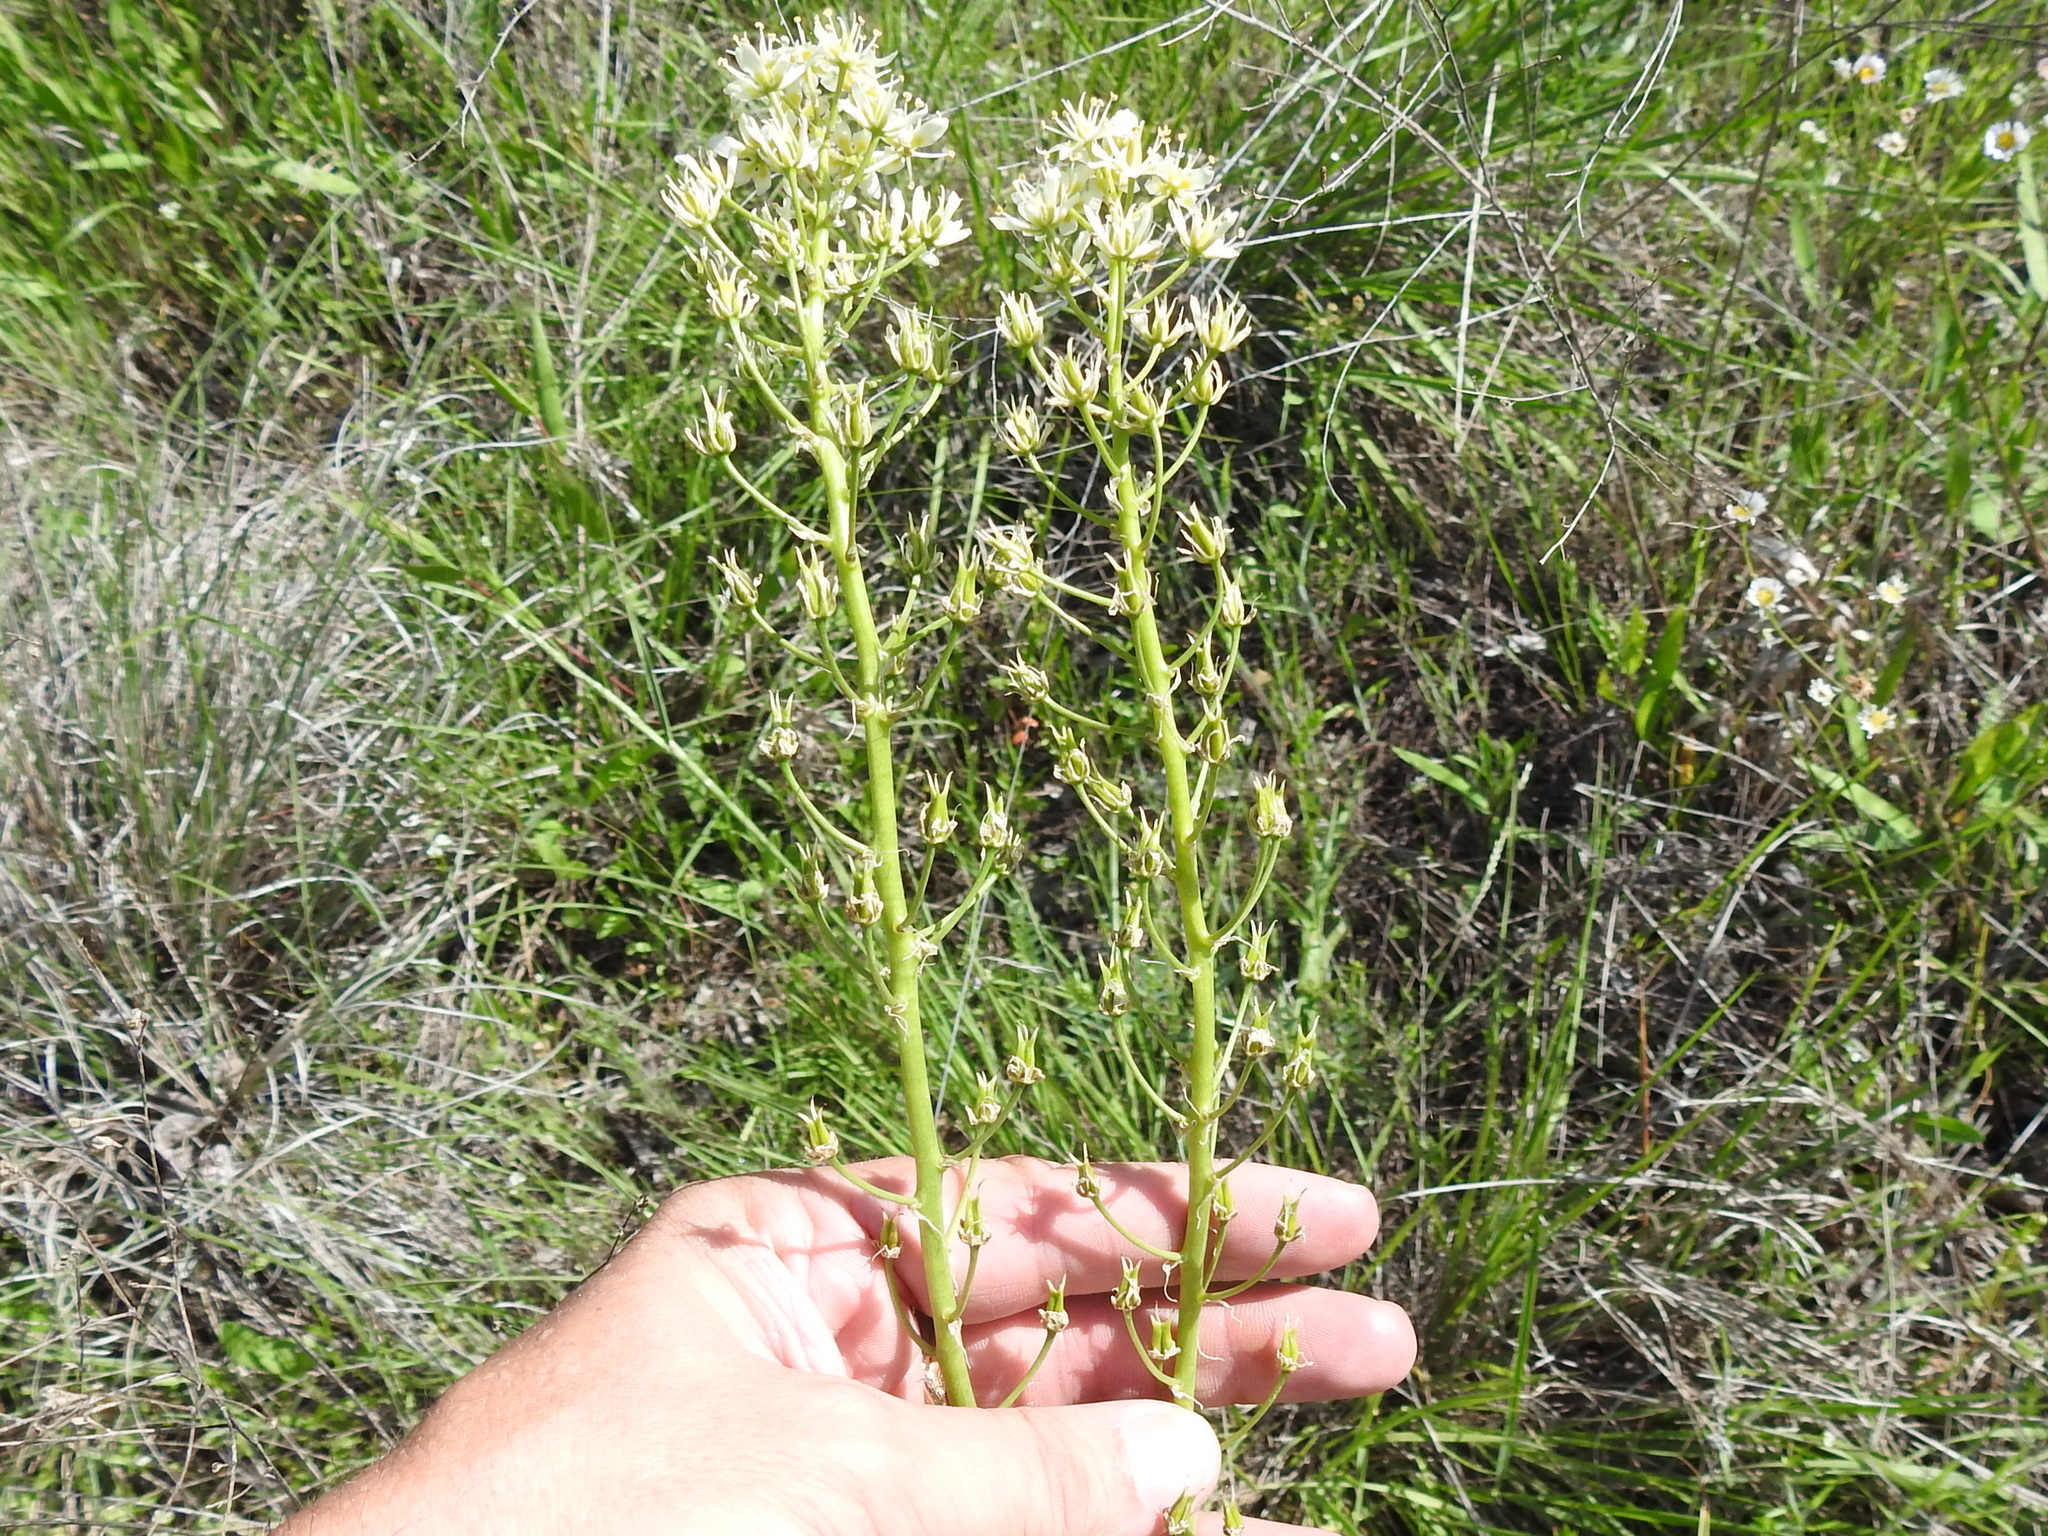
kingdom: Plantae
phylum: Tracheophyta
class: Liliopsida
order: Liliales
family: Melanthiaceae
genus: Toxicoscordion
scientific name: Toxicoscordion nuttallii
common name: Poison sego
